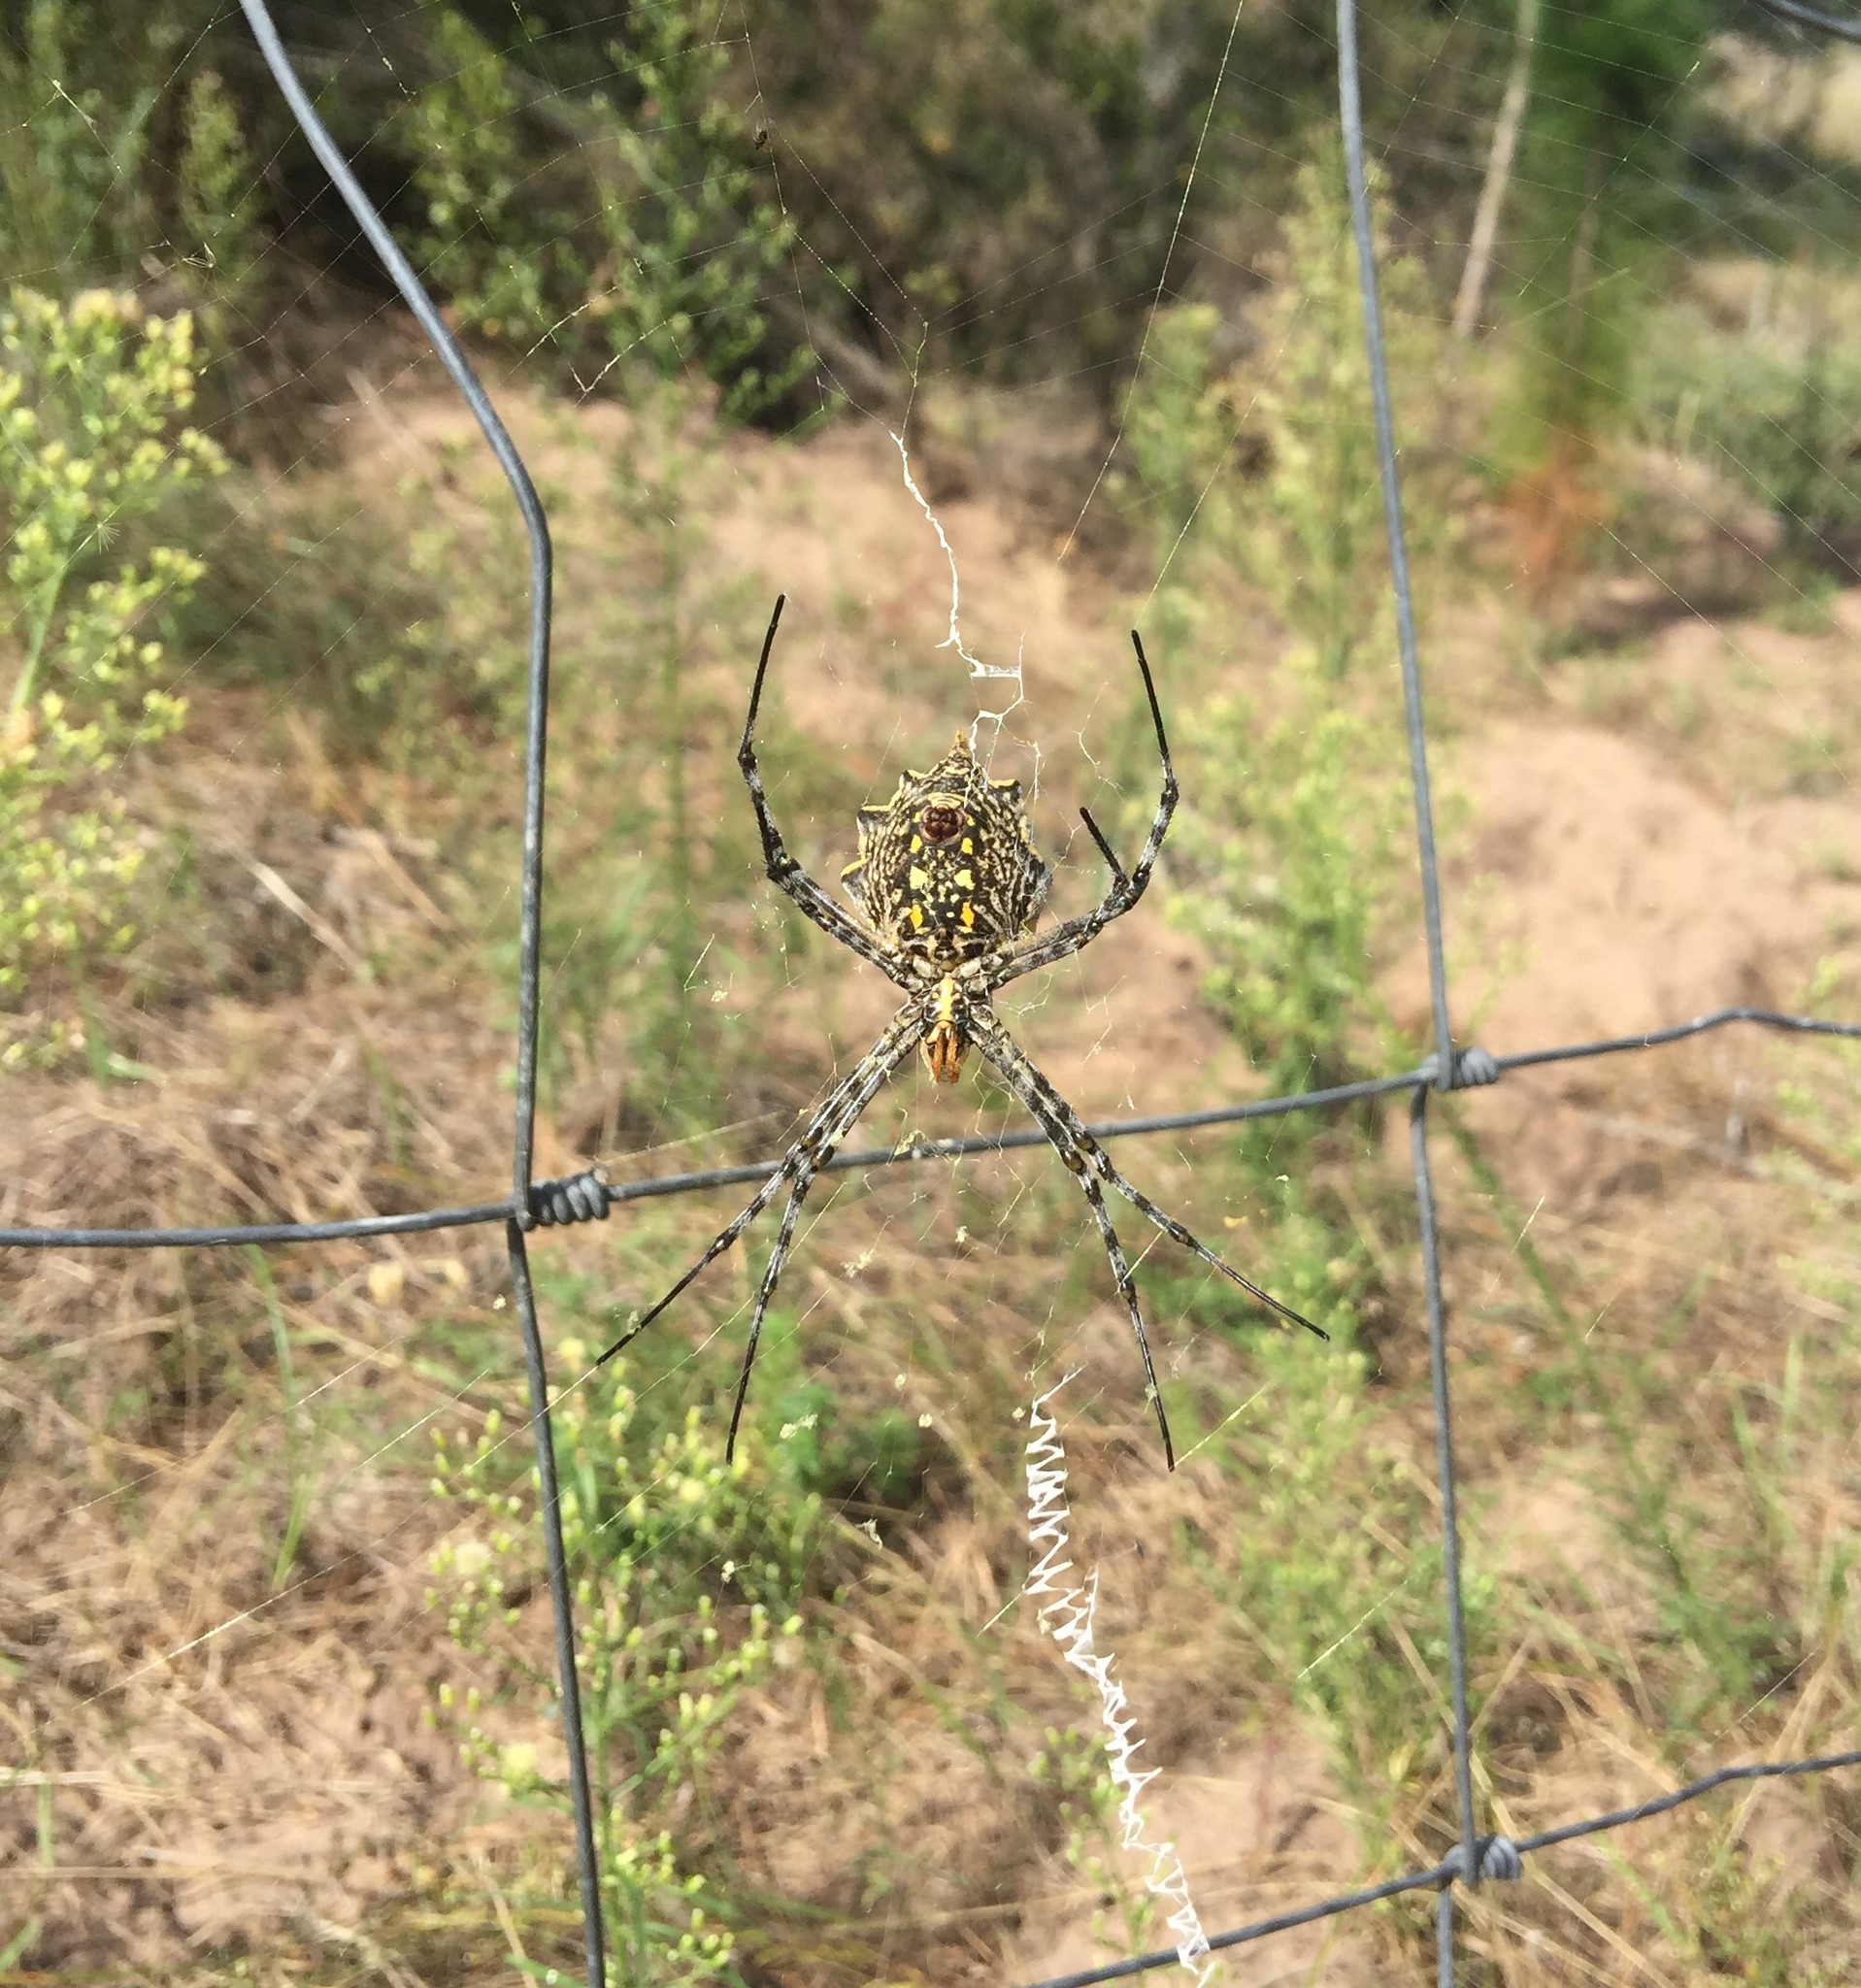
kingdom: Animalia
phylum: Arthropoda
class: Arachnida
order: Araneae
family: Araneidae
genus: Argiope
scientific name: Argiope australis
